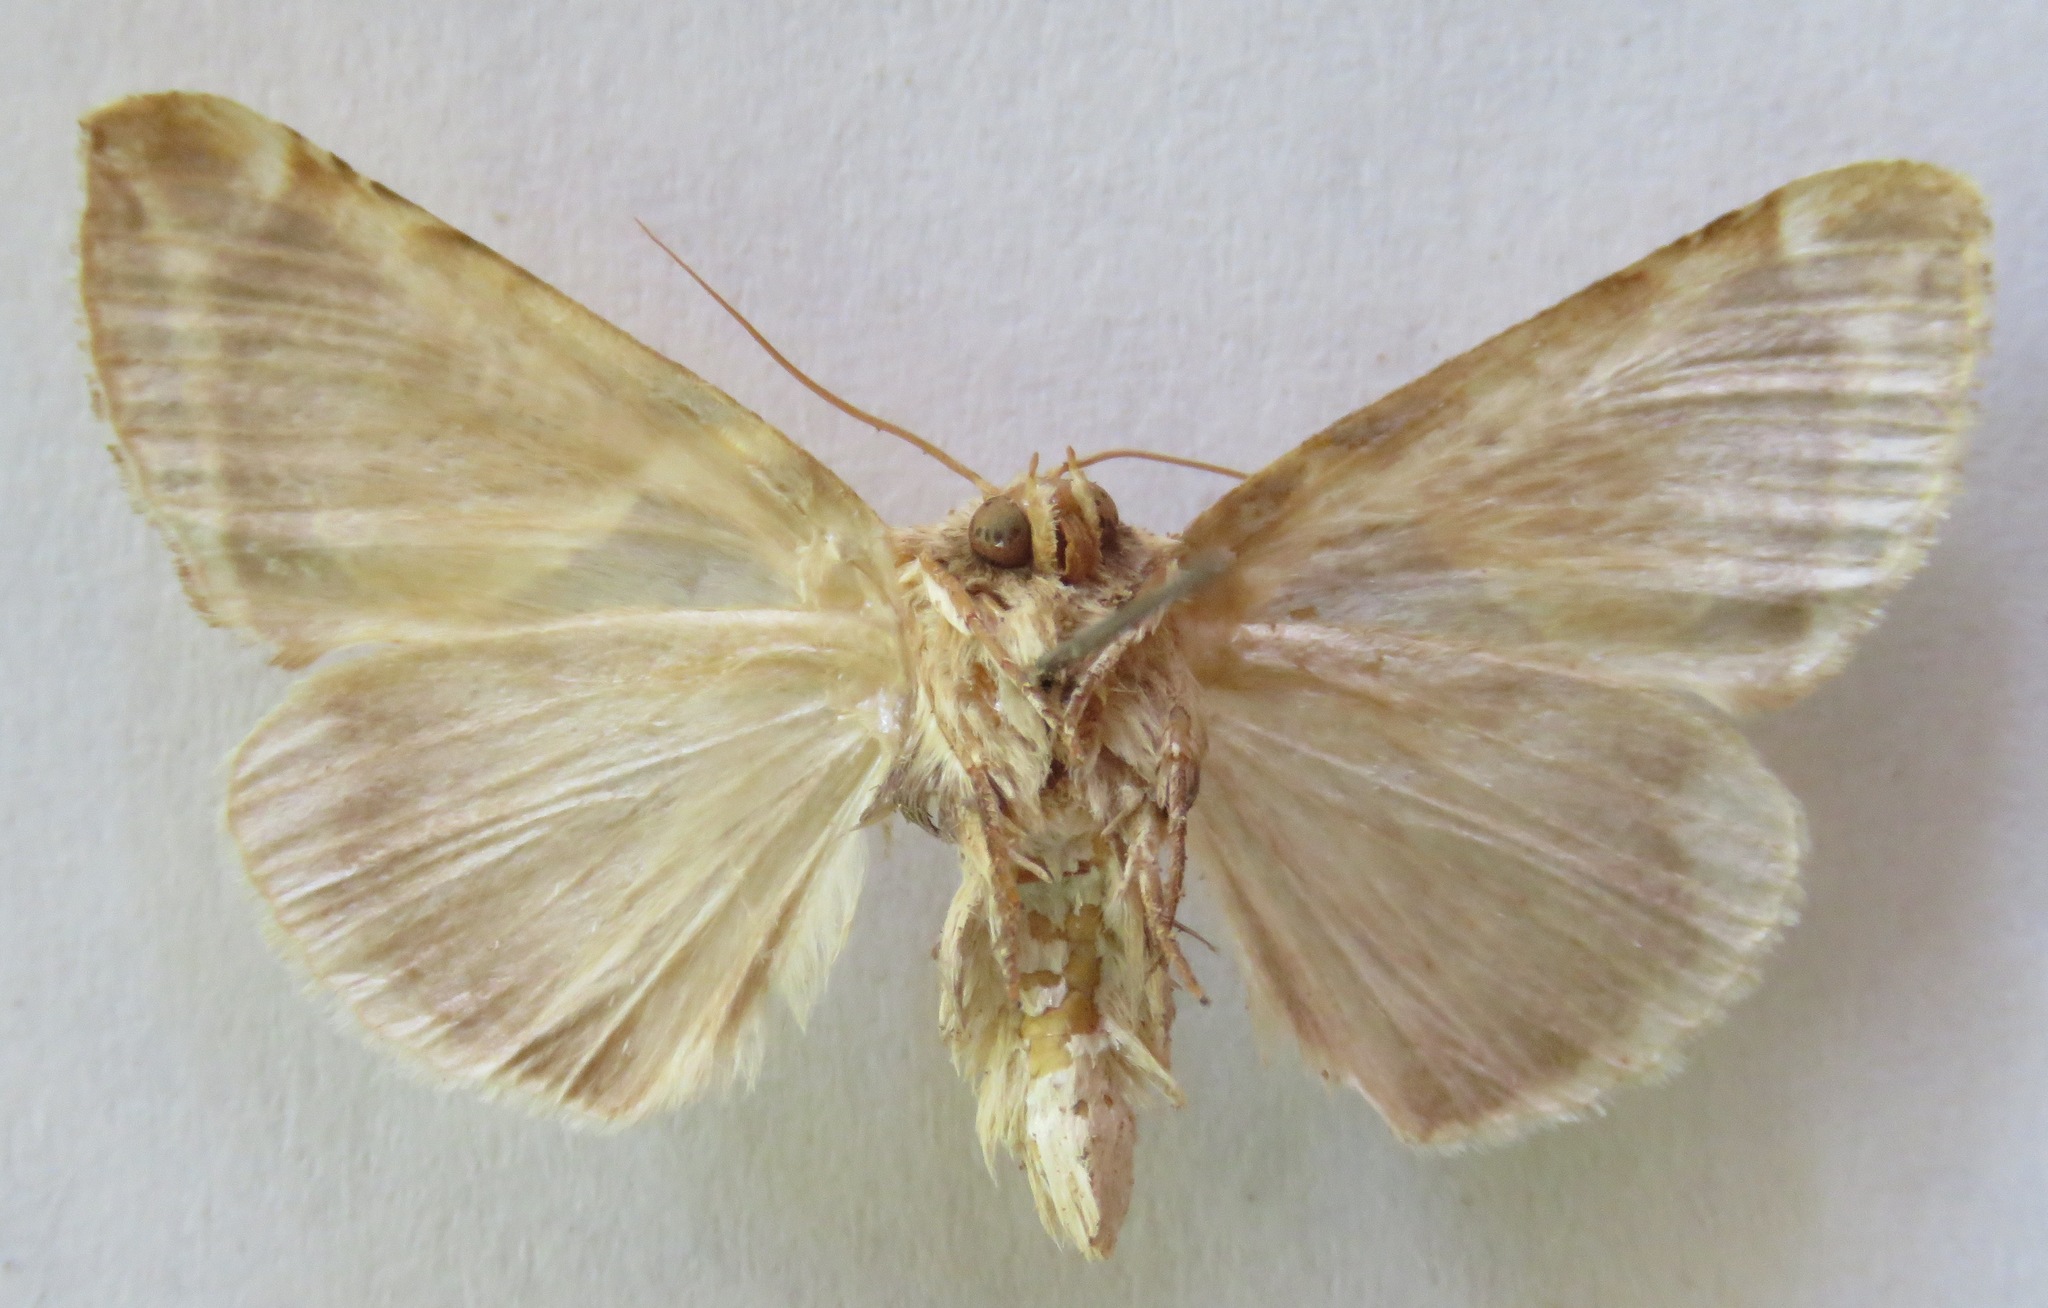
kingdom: Animalia
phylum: Arthropoda
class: Insecta
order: Lepidoptera
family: Drepanidae
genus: Habrosyne
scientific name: Habrosyne pyritoides
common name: Buff arches
